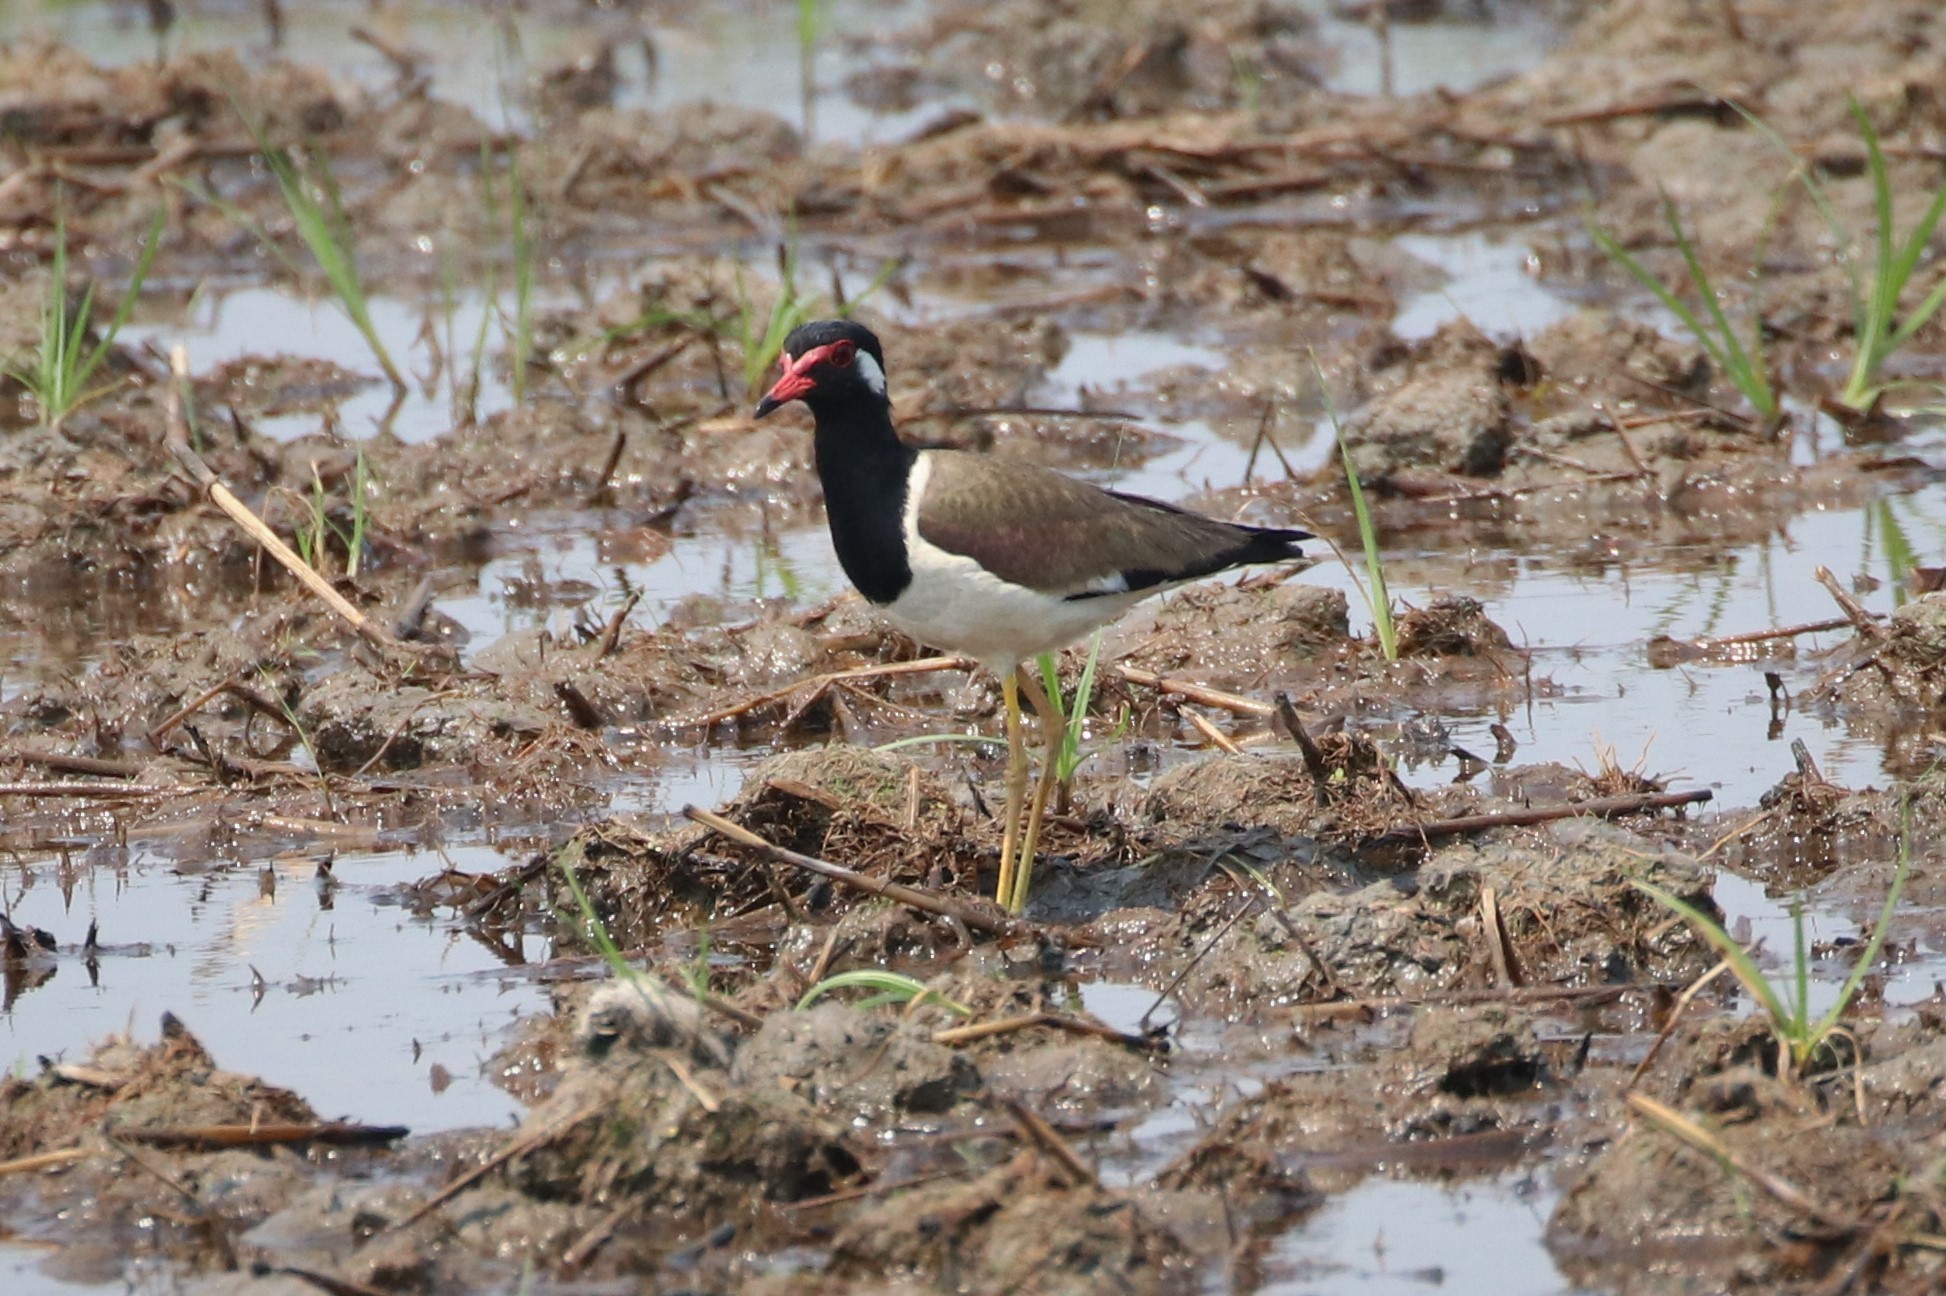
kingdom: Animalia
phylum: Chordata
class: Aves
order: Charadriiformes
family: Charadriidae
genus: Vanellus
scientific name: Vanellus indicus
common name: Red-wattled lapwing
